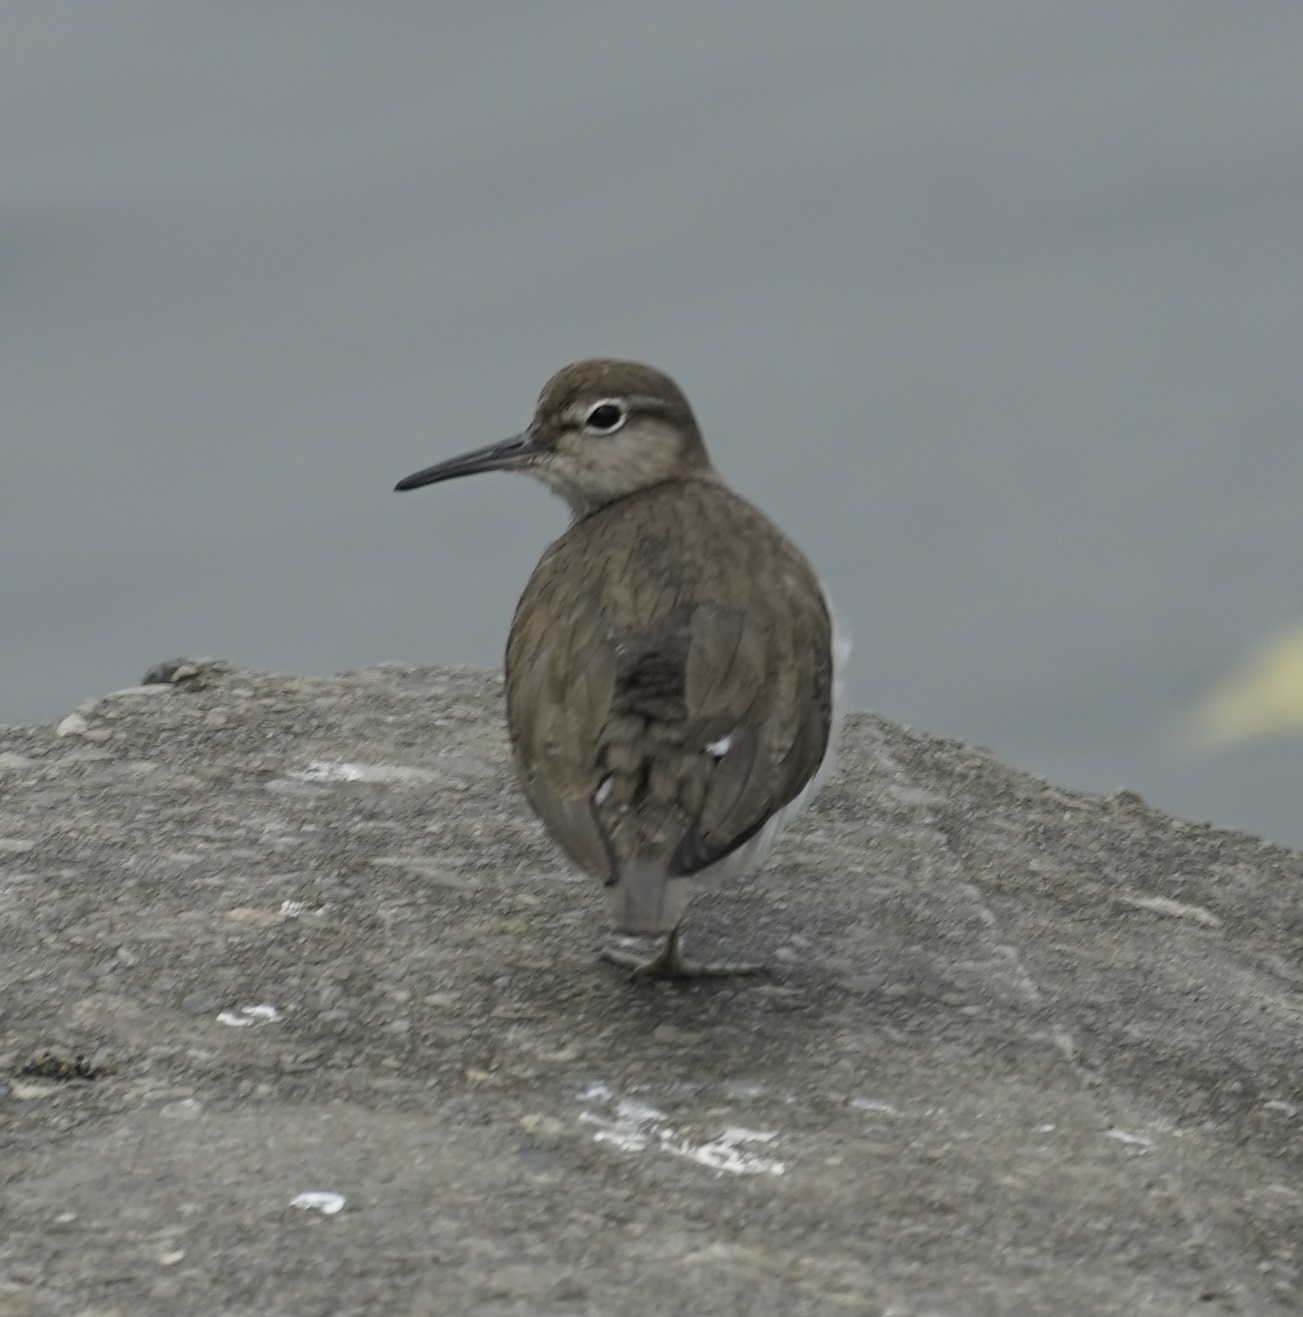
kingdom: Animalia
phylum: Chordata
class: Aves
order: Charadriiformes
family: Scolopacidae
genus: Actitis
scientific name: Actitis hypoleucos
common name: Common sandpiper
